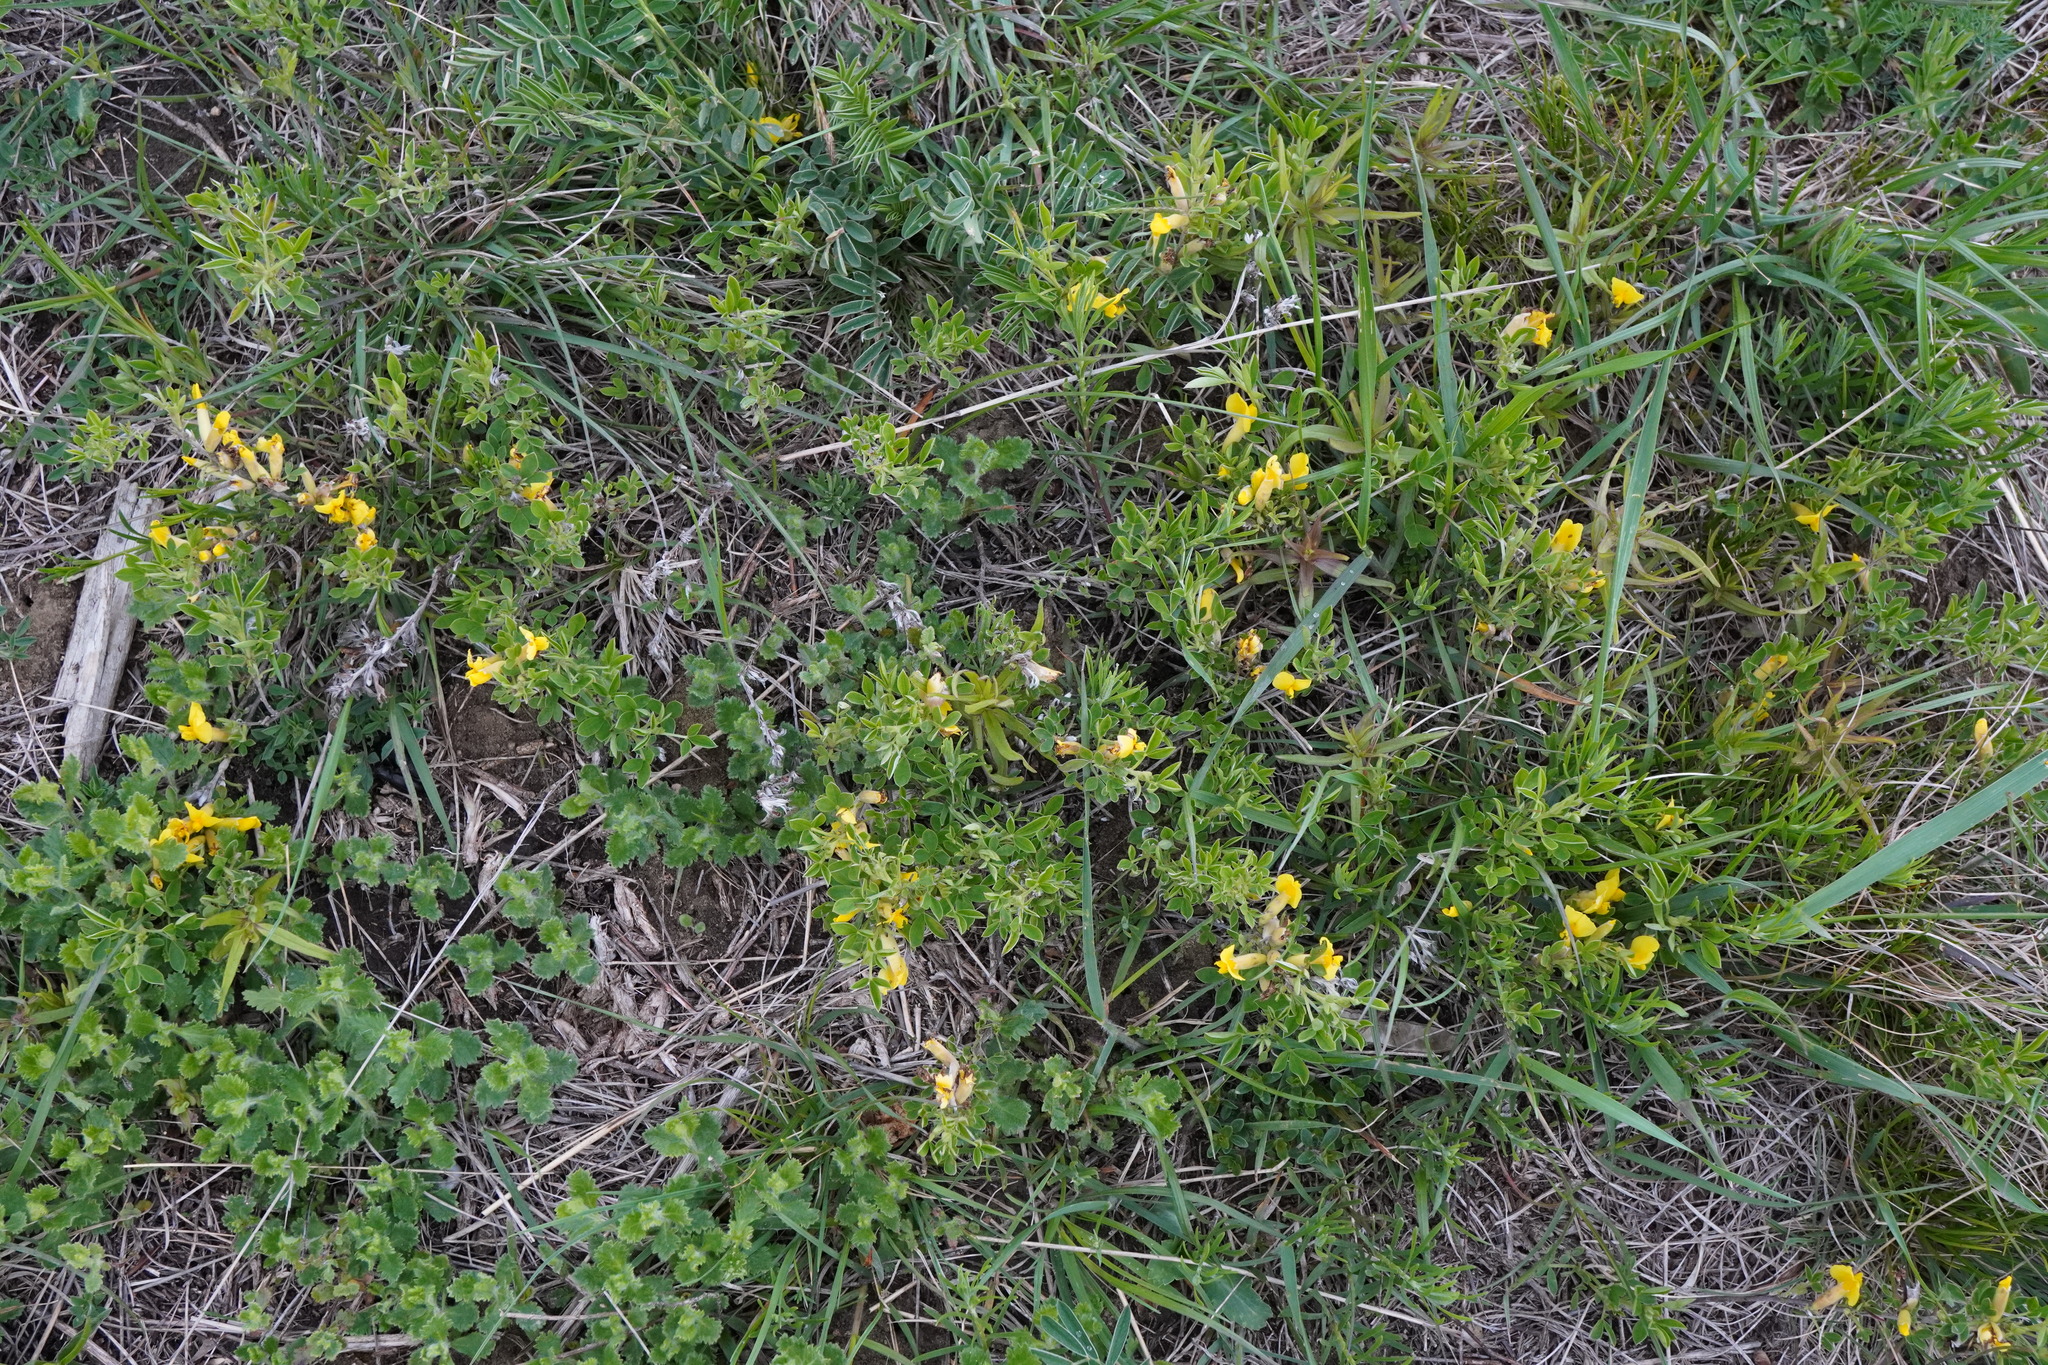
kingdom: Plantae
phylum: Tracheophyta
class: Magnoliopsida
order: Fabales
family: Fabaceae
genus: Chamaecytisus
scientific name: Chamaecytisus ratisbonensis
